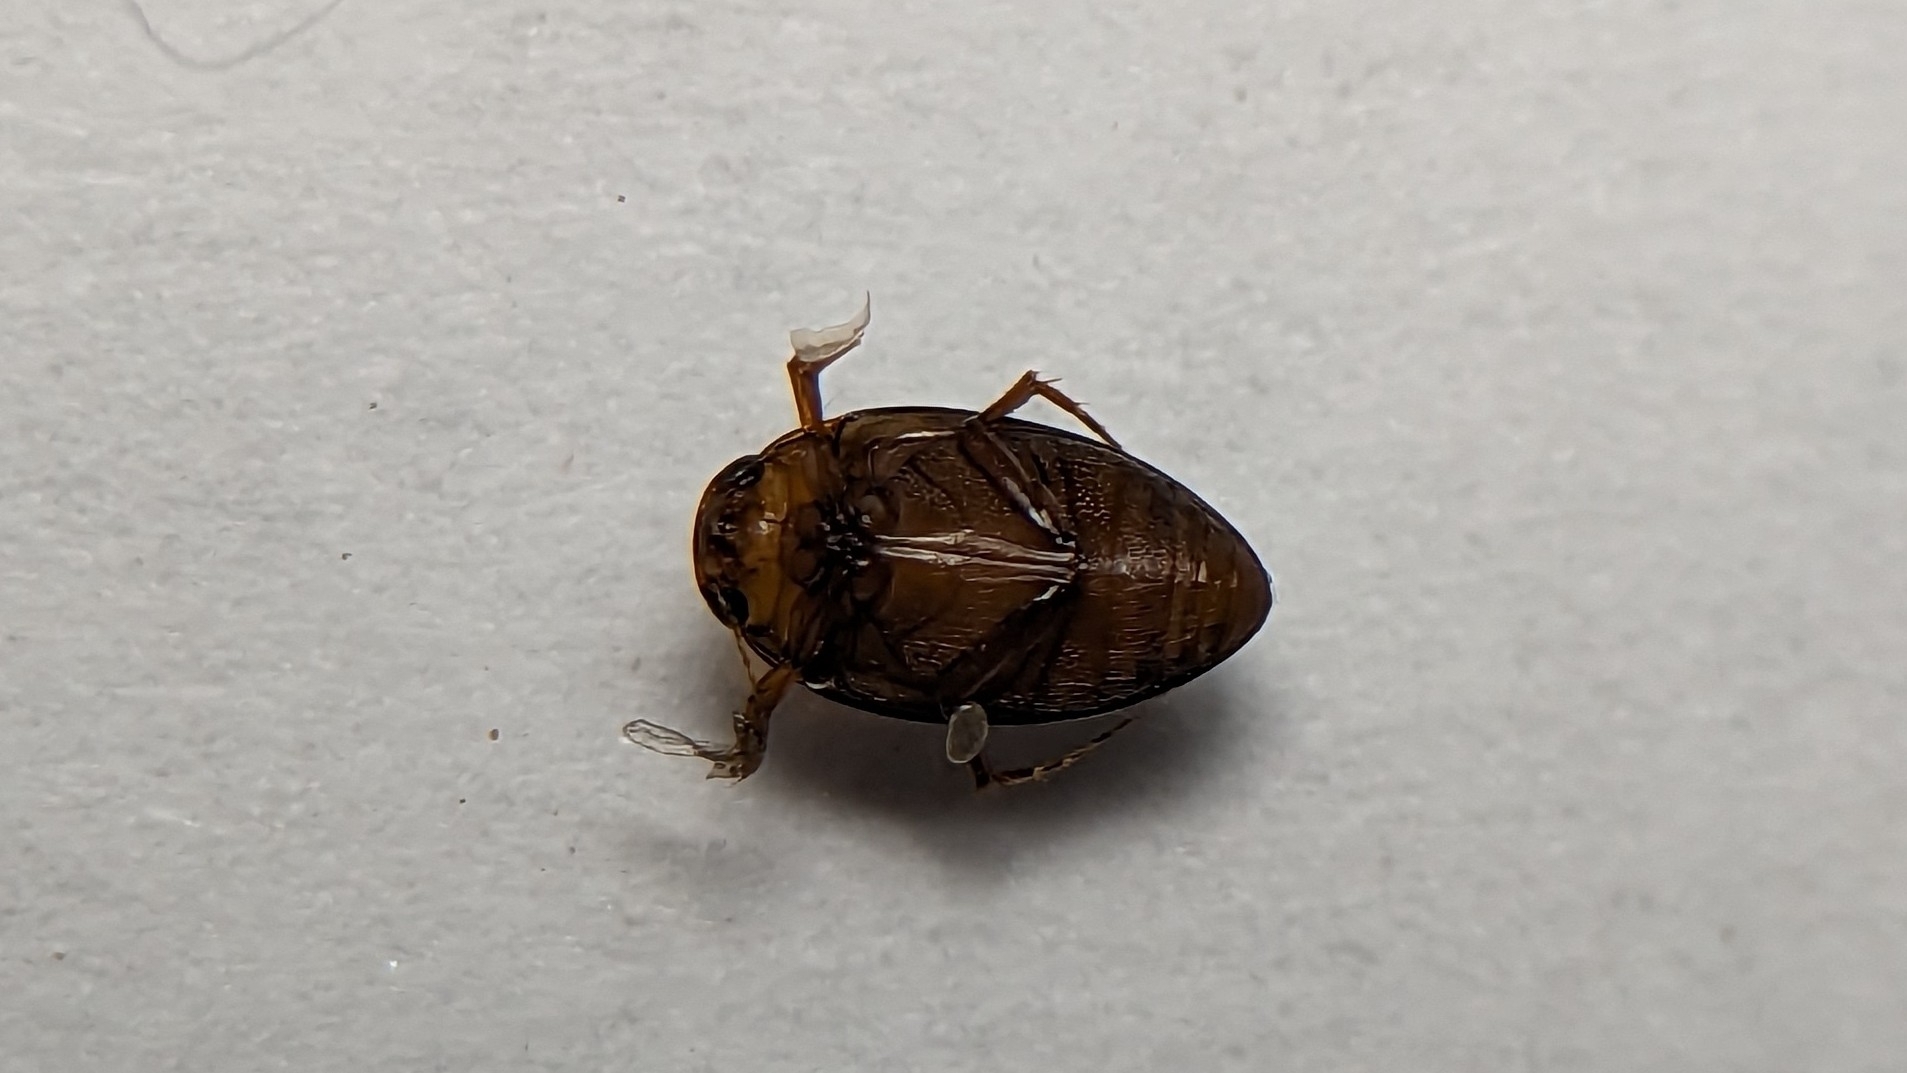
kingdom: Animalia
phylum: Arthropoda
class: Insecta
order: Coleoptera
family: Dytiscidae
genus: Neoporus
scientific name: Neoporus
